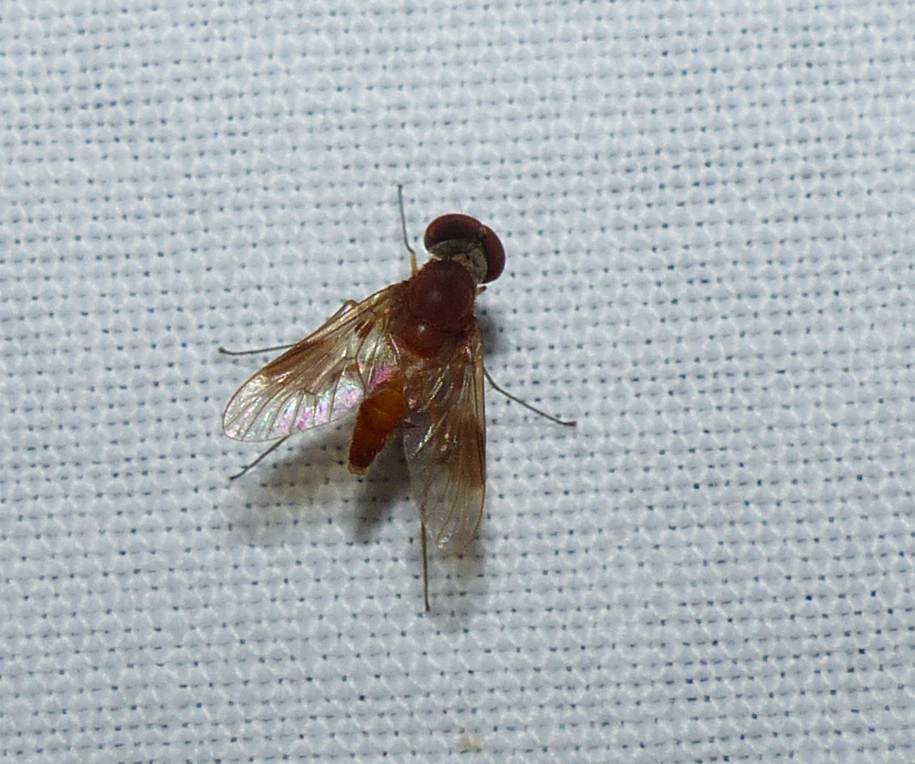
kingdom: Animalia
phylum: Arthropoda
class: Insecta
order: Diptera
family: Rhagionidae
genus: Chrysopilus
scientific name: Chrysopilus quadratus
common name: Quadrate snipe fly
